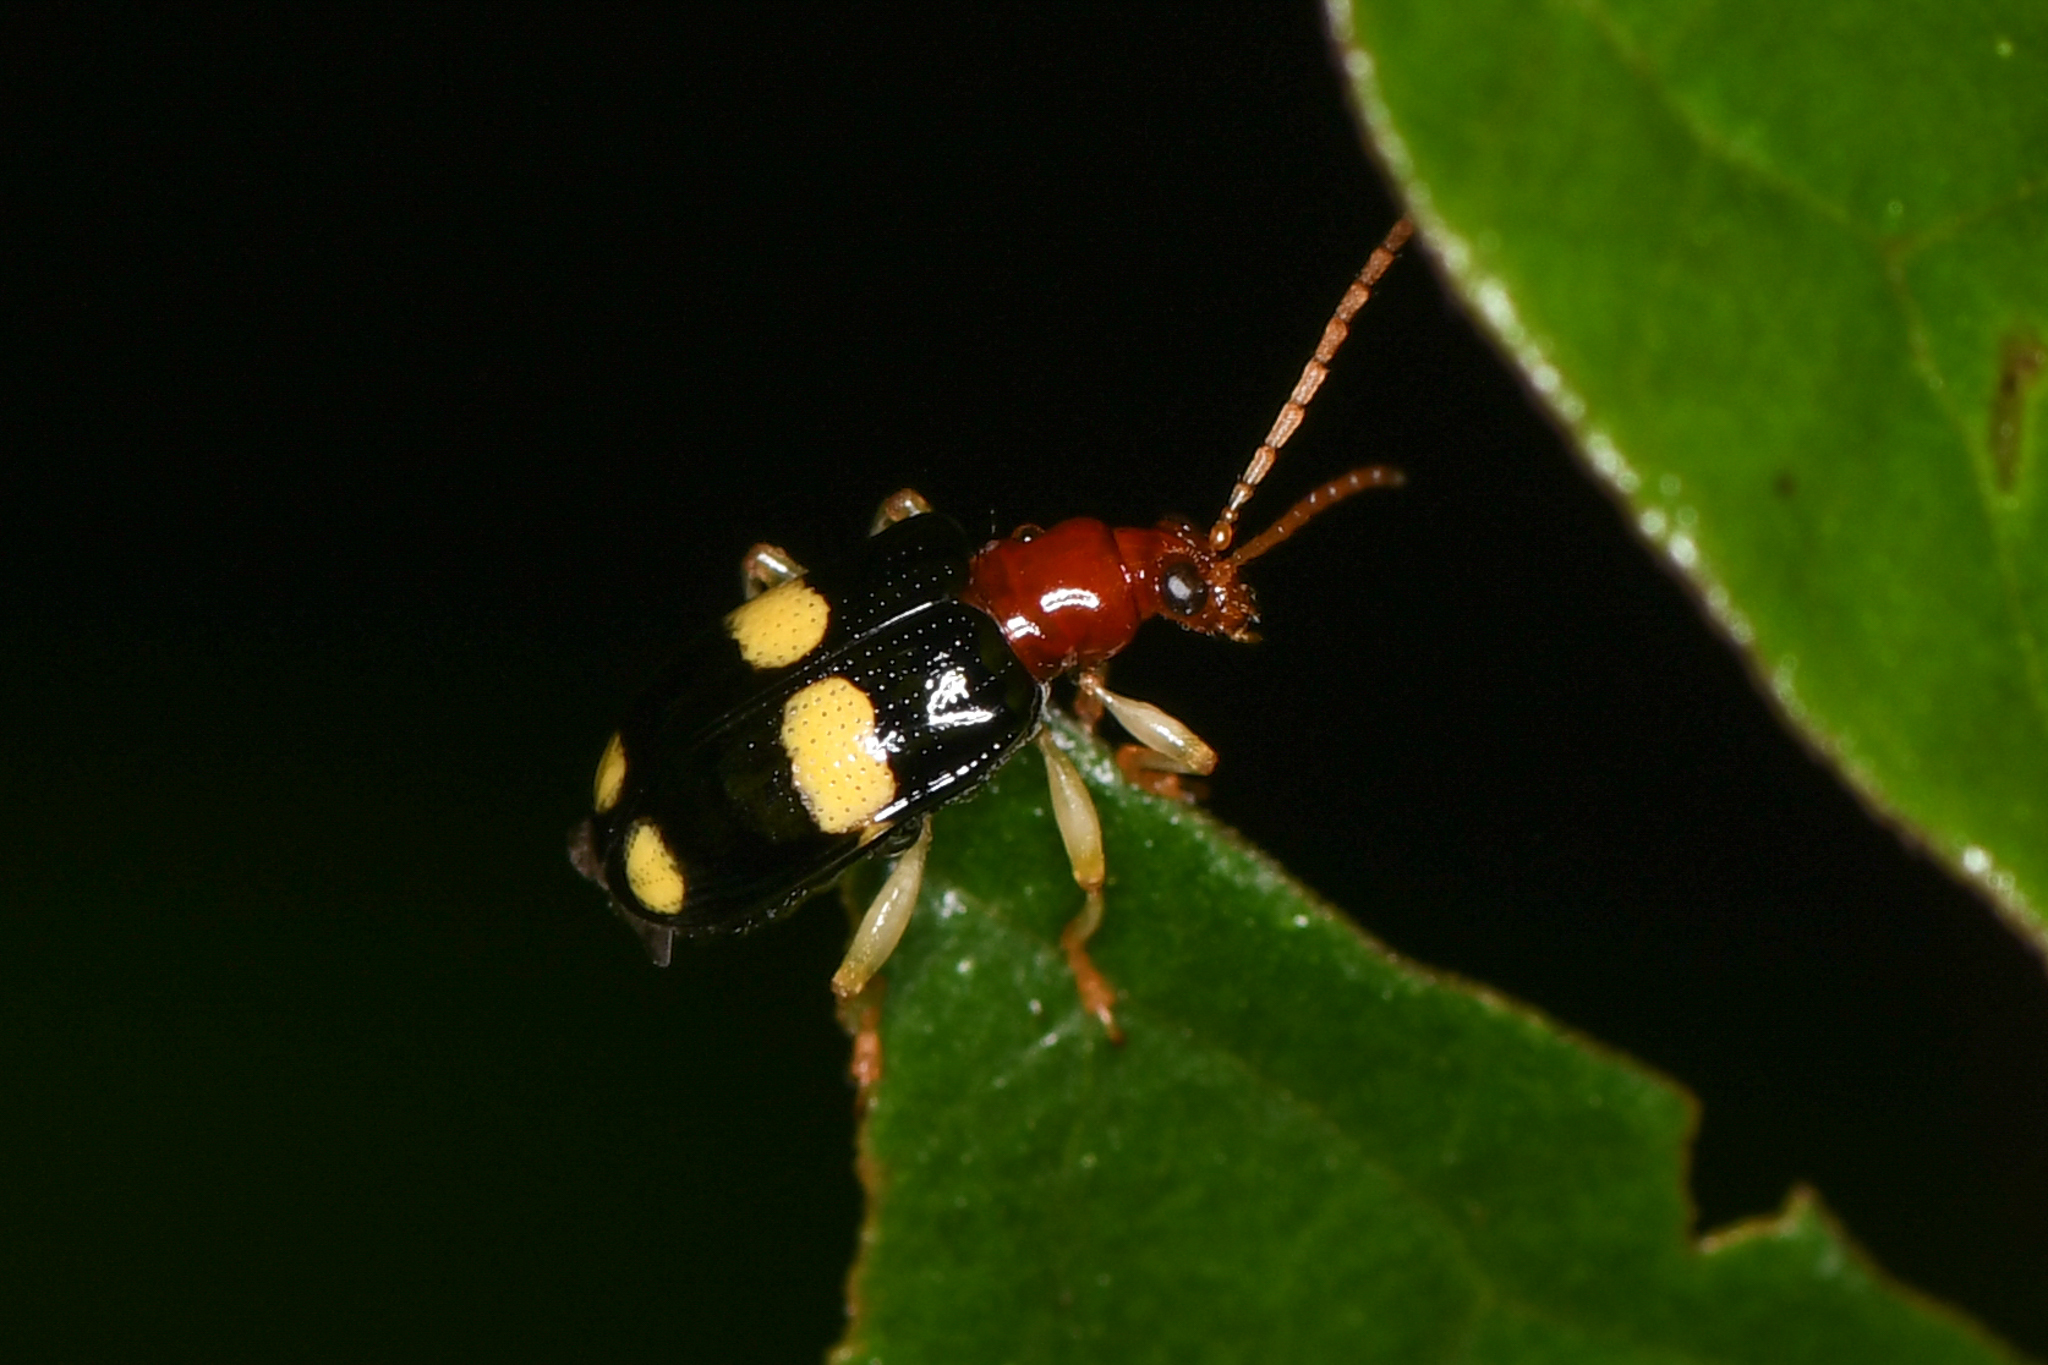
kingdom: Animalia
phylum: Arthropoda
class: Insecta
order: Coleoptera
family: Chrysomelidae
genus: Lema
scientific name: Lema bitaeniata
